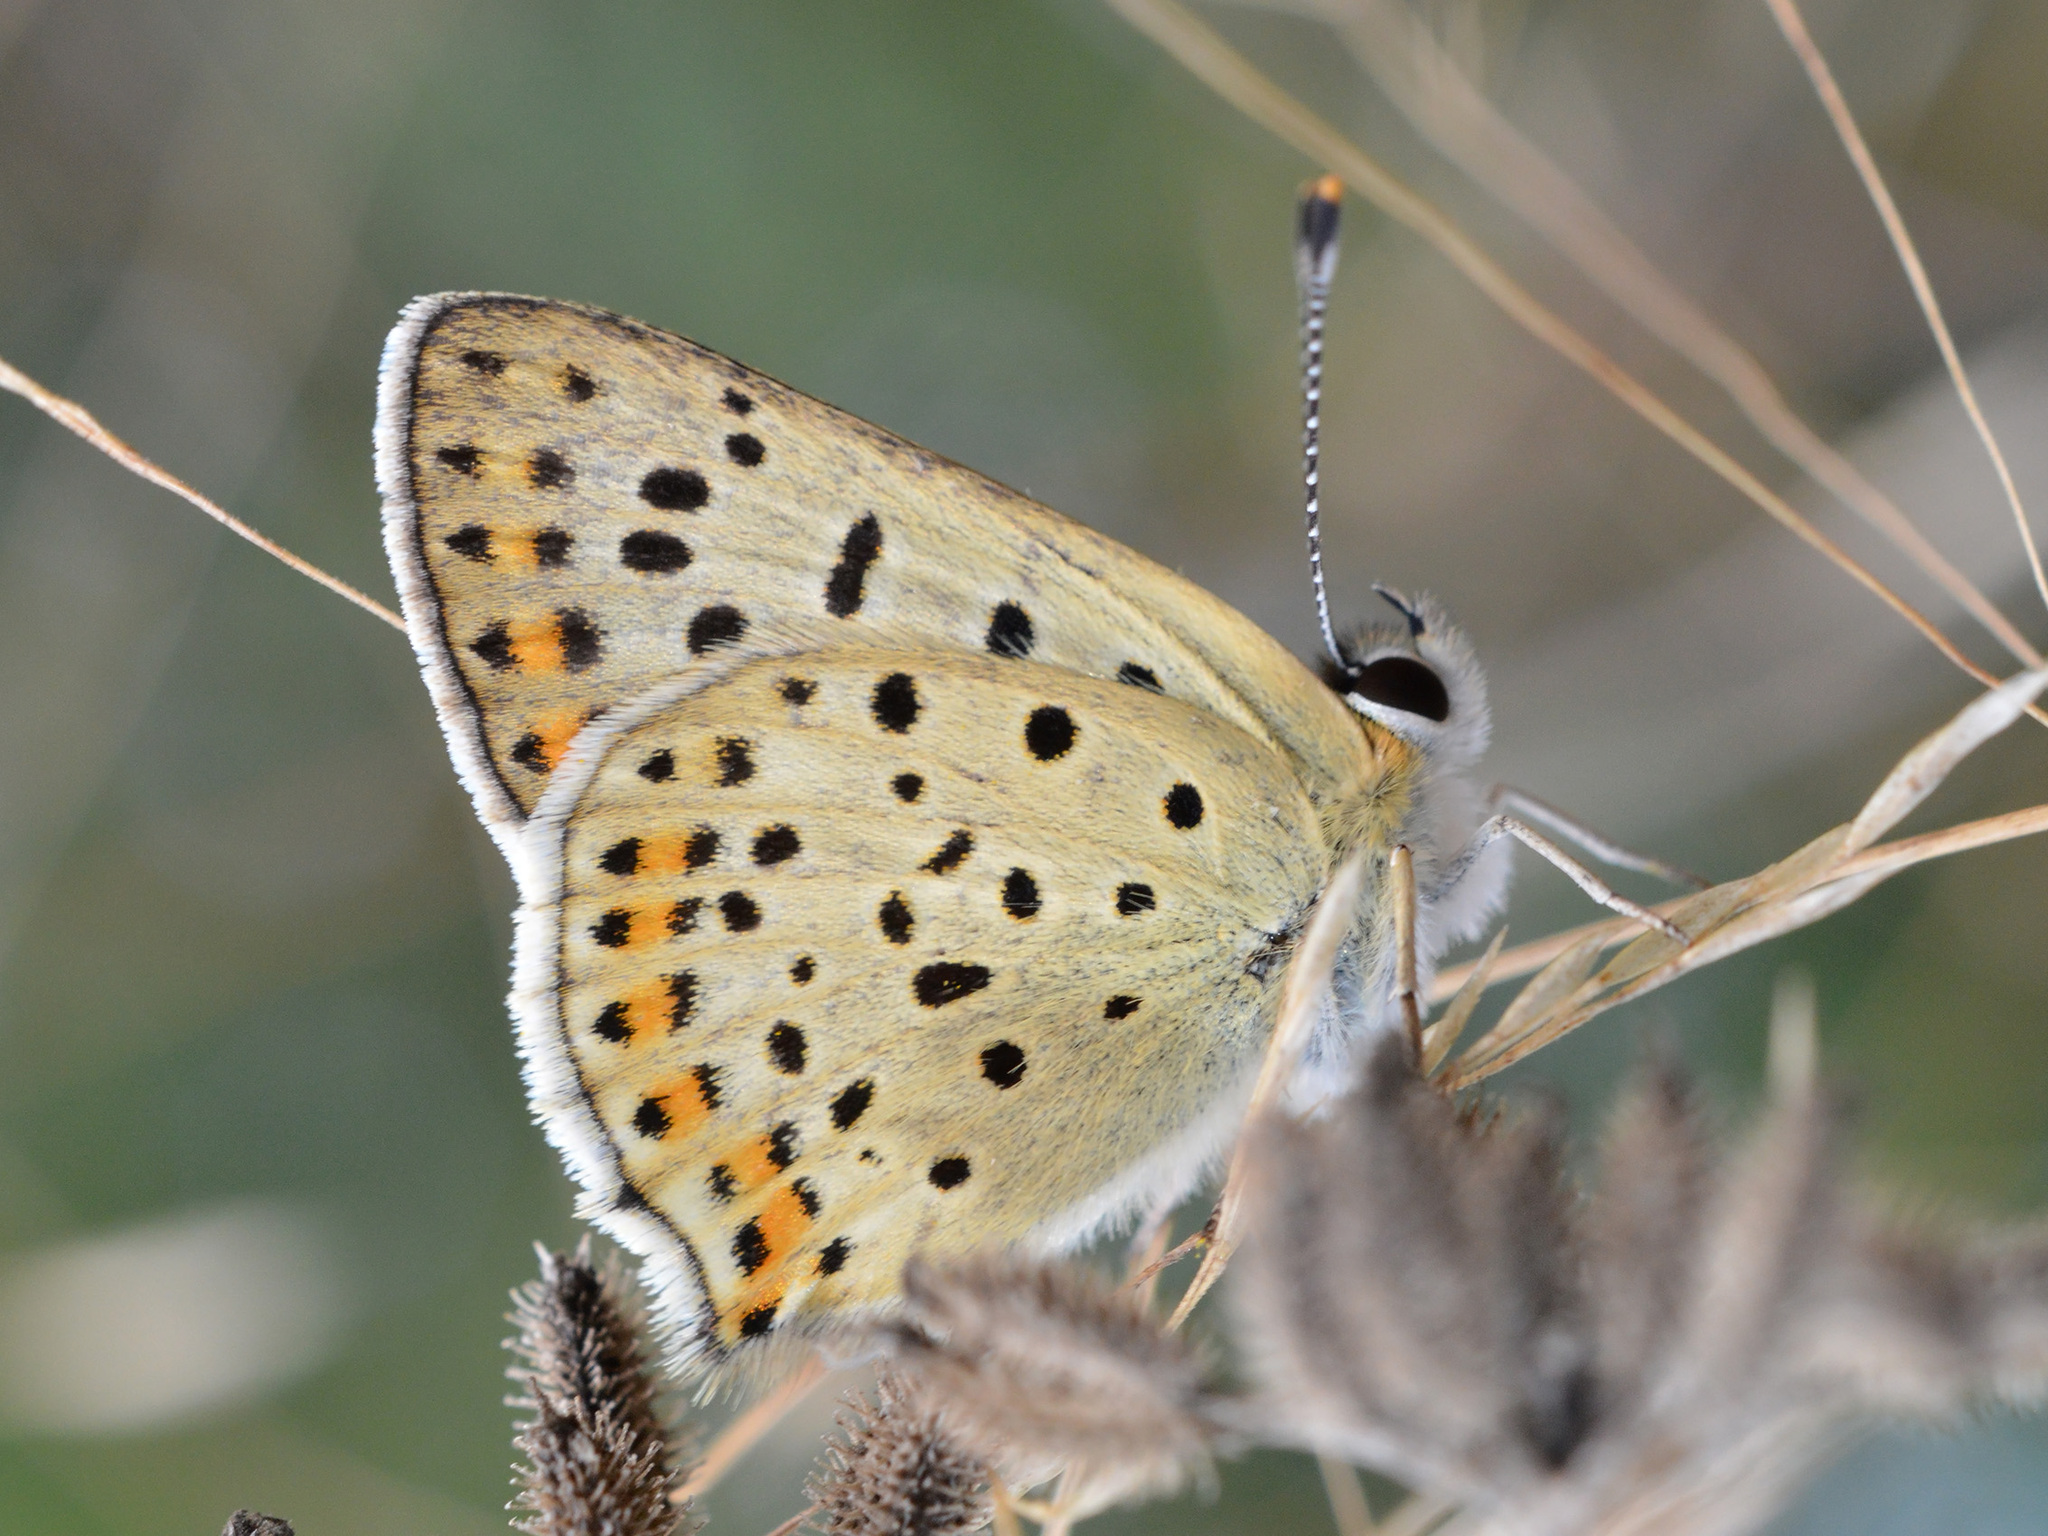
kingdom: Animalia
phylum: Arthropoda
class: Insecta
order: Lepidoptera
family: Lycaenidae
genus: Loweia
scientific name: Loweia tityrus
